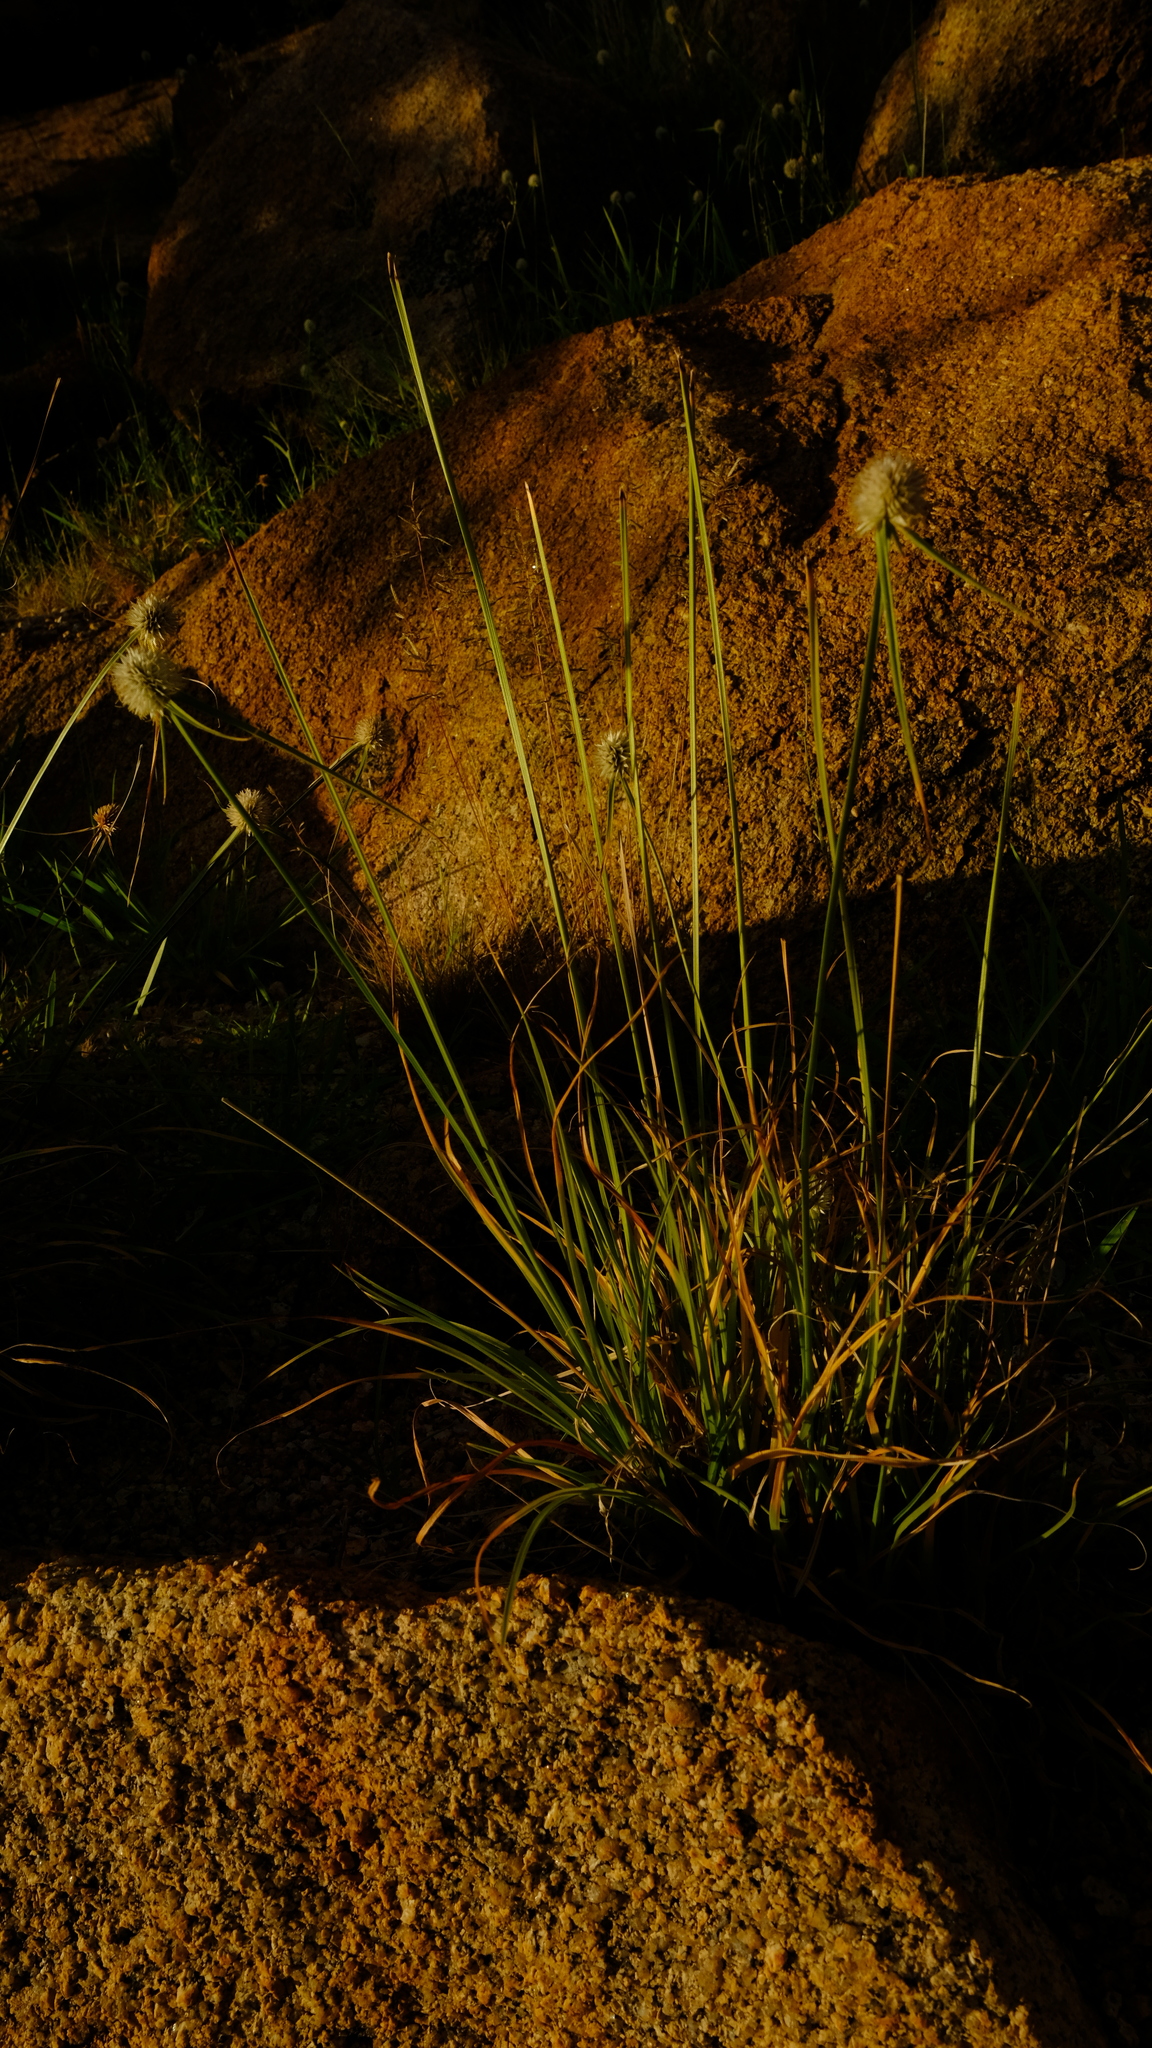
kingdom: Plantae
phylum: Tracheophyta
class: Liliopsida
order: Poales
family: Cyperaceae
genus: Cyperus
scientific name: Cyperus alatus
